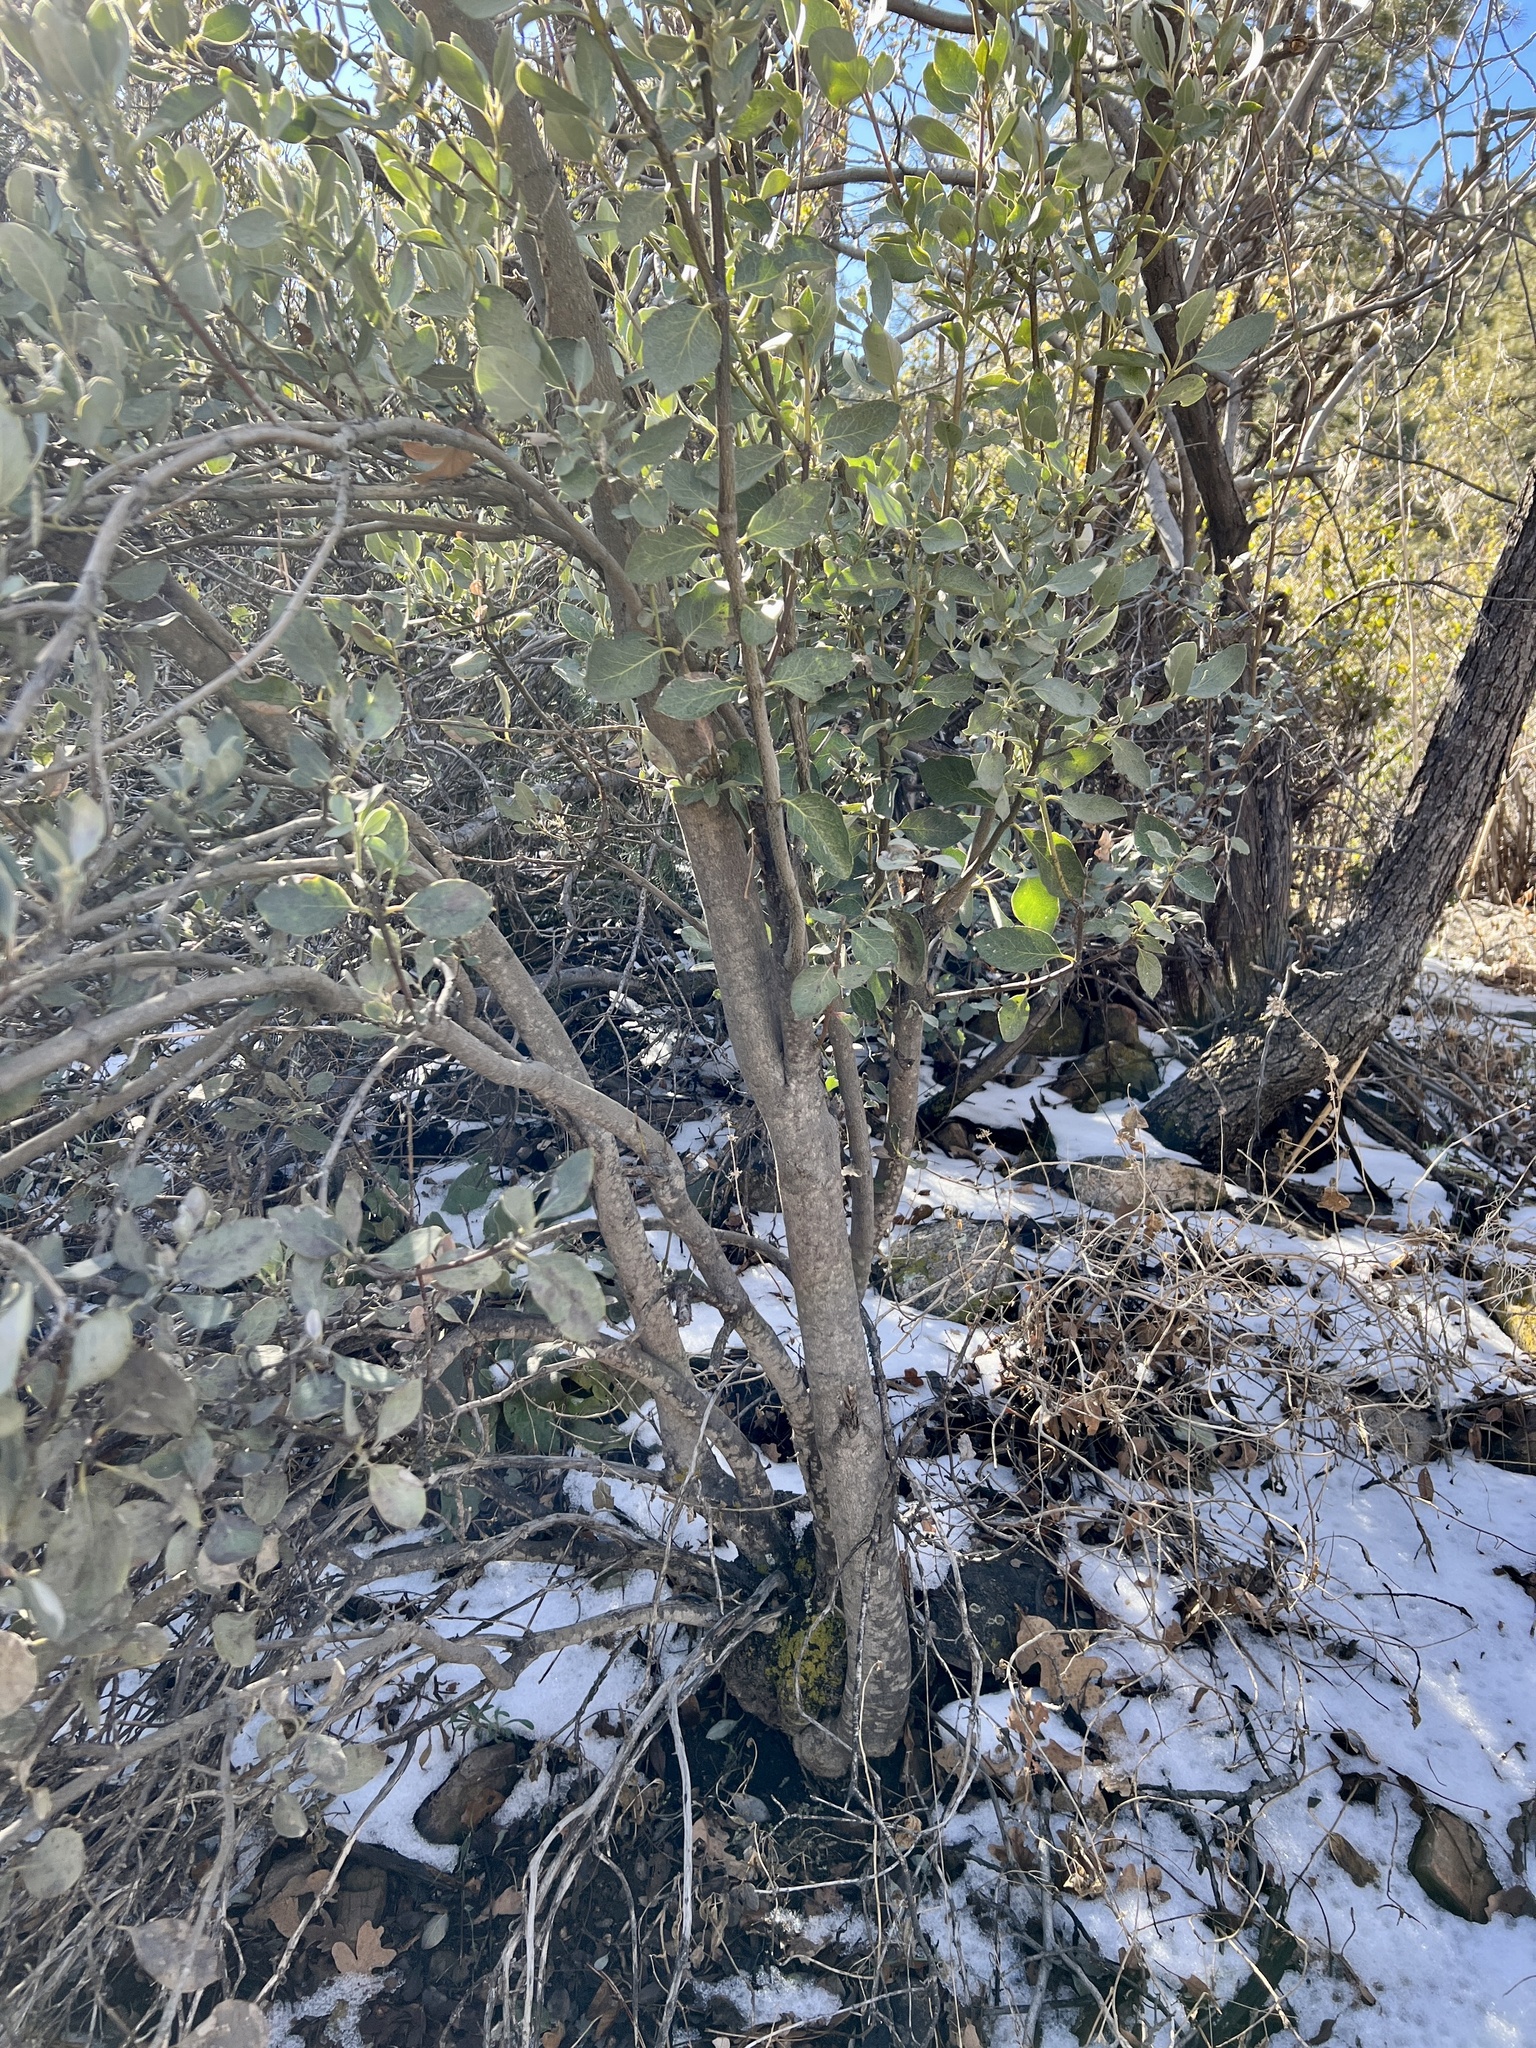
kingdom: Plantae
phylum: Tracheophyta
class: Magnoliopsida
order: Garryales
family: Garryaceae
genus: Garrya
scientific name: Garrya flavescens
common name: Ashy silk-tassel
